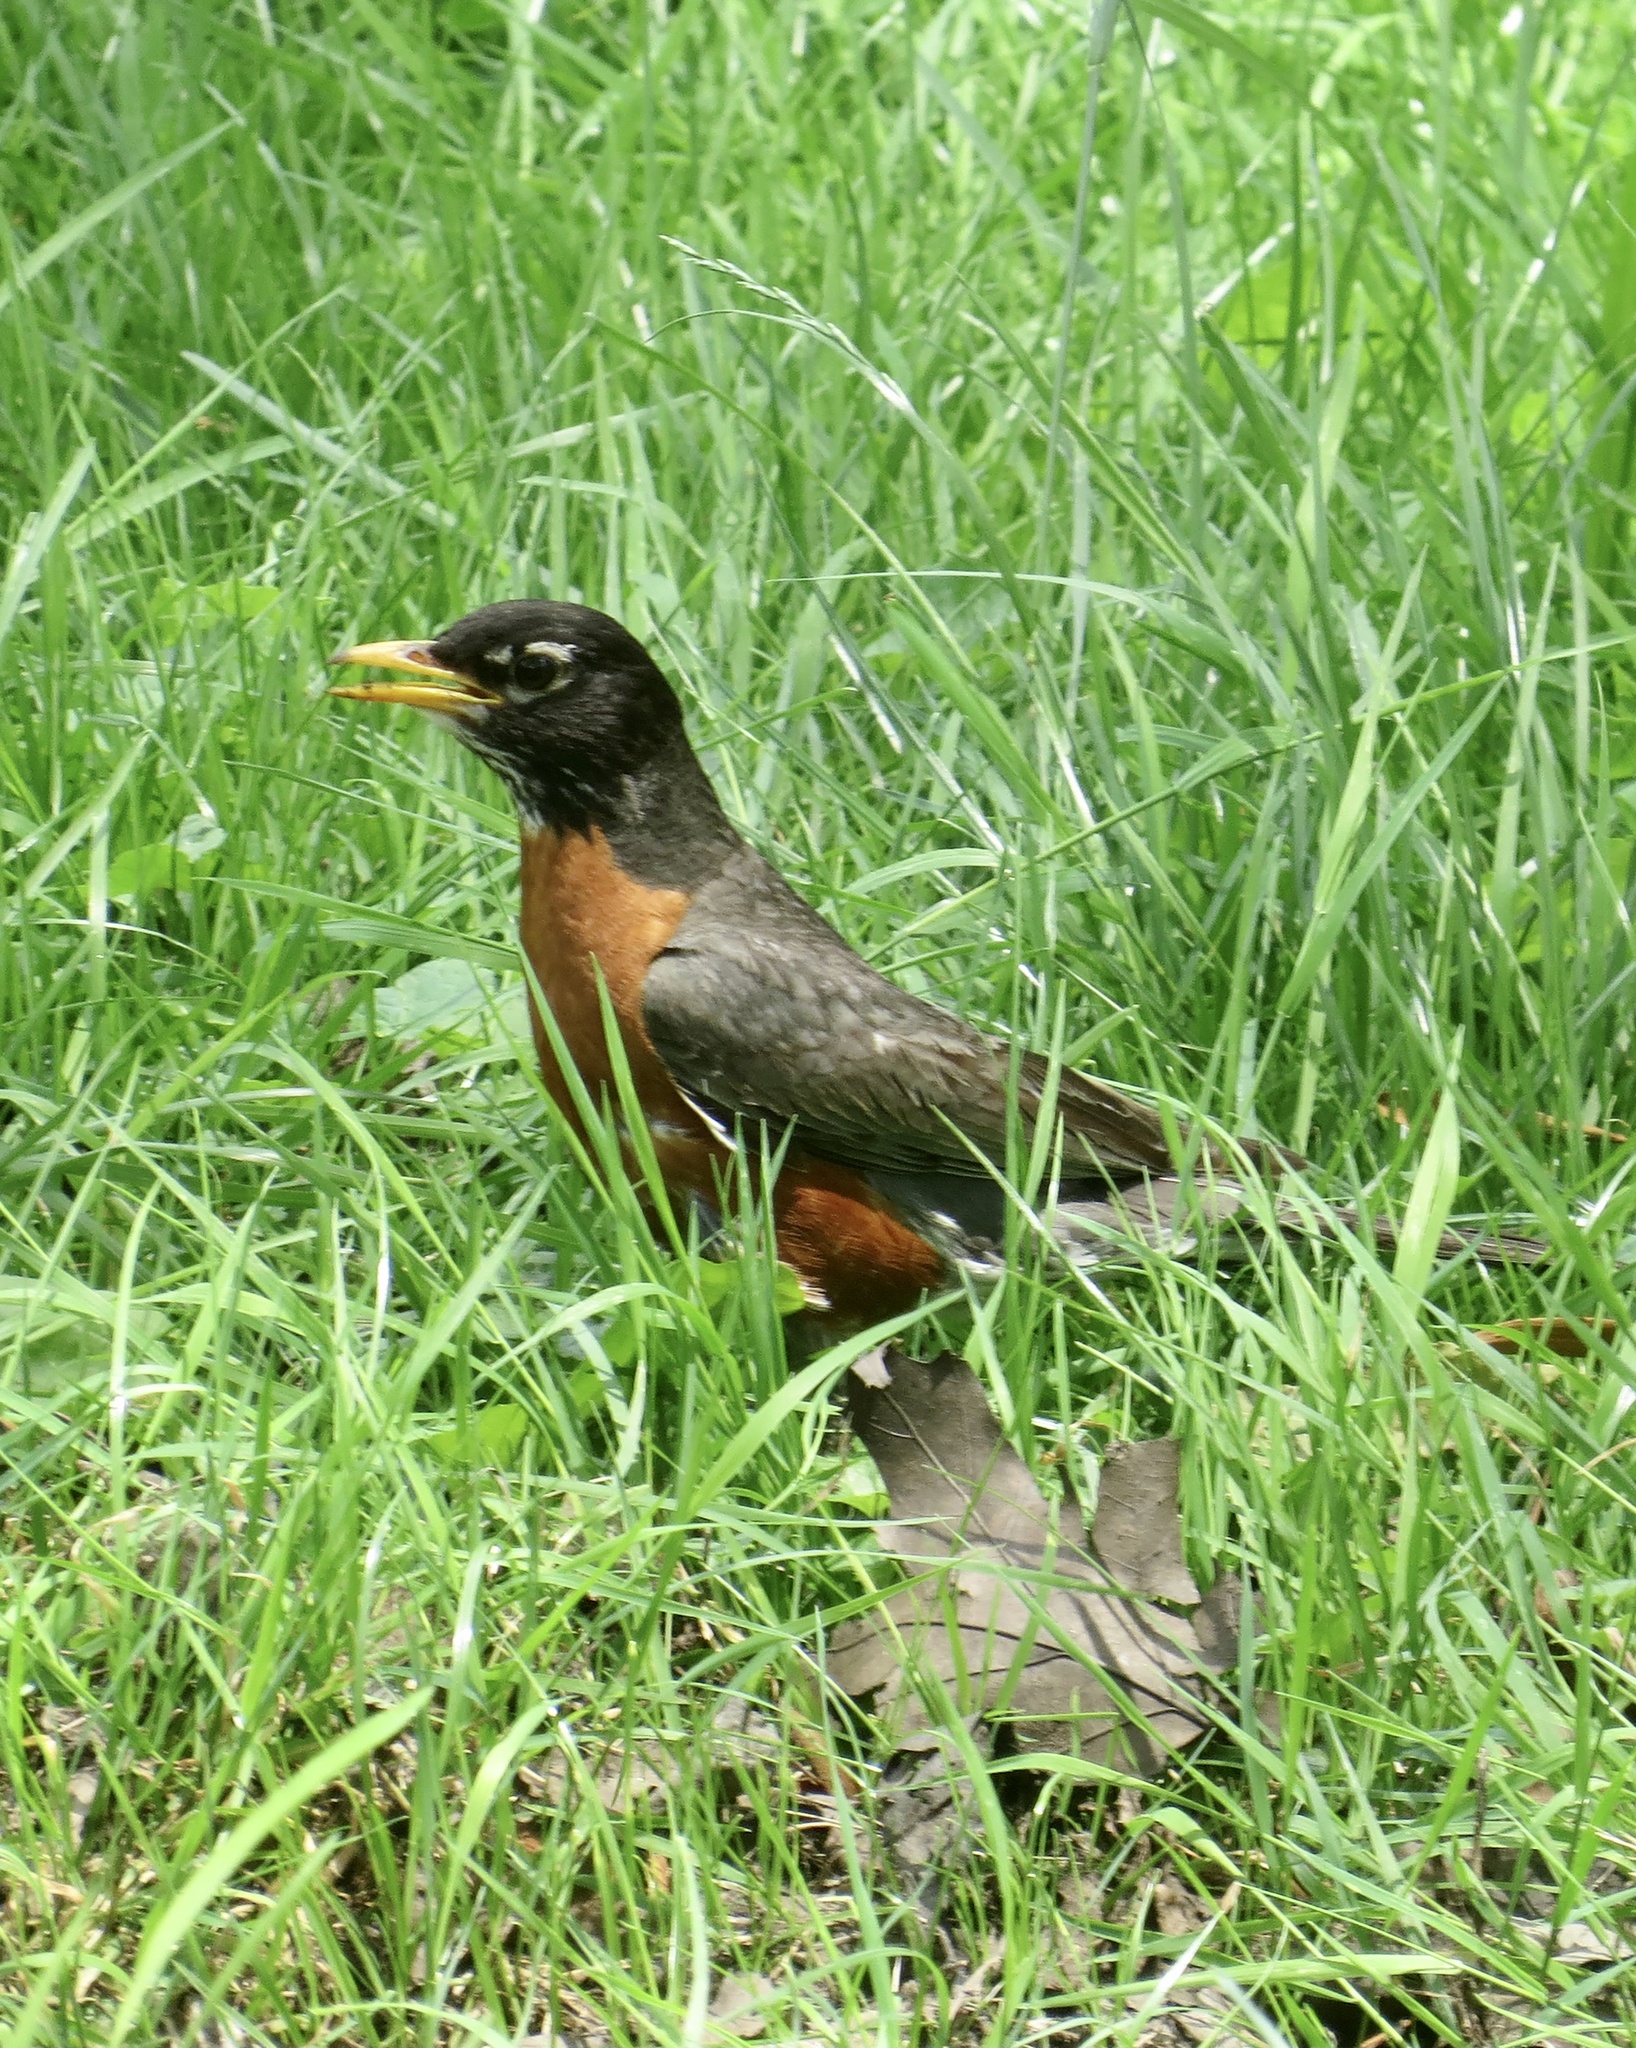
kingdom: Animalia
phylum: Chordata
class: Aves
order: Passeriformes
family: Turdidae
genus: Turdus
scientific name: Turdus migratorius
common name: American robin
